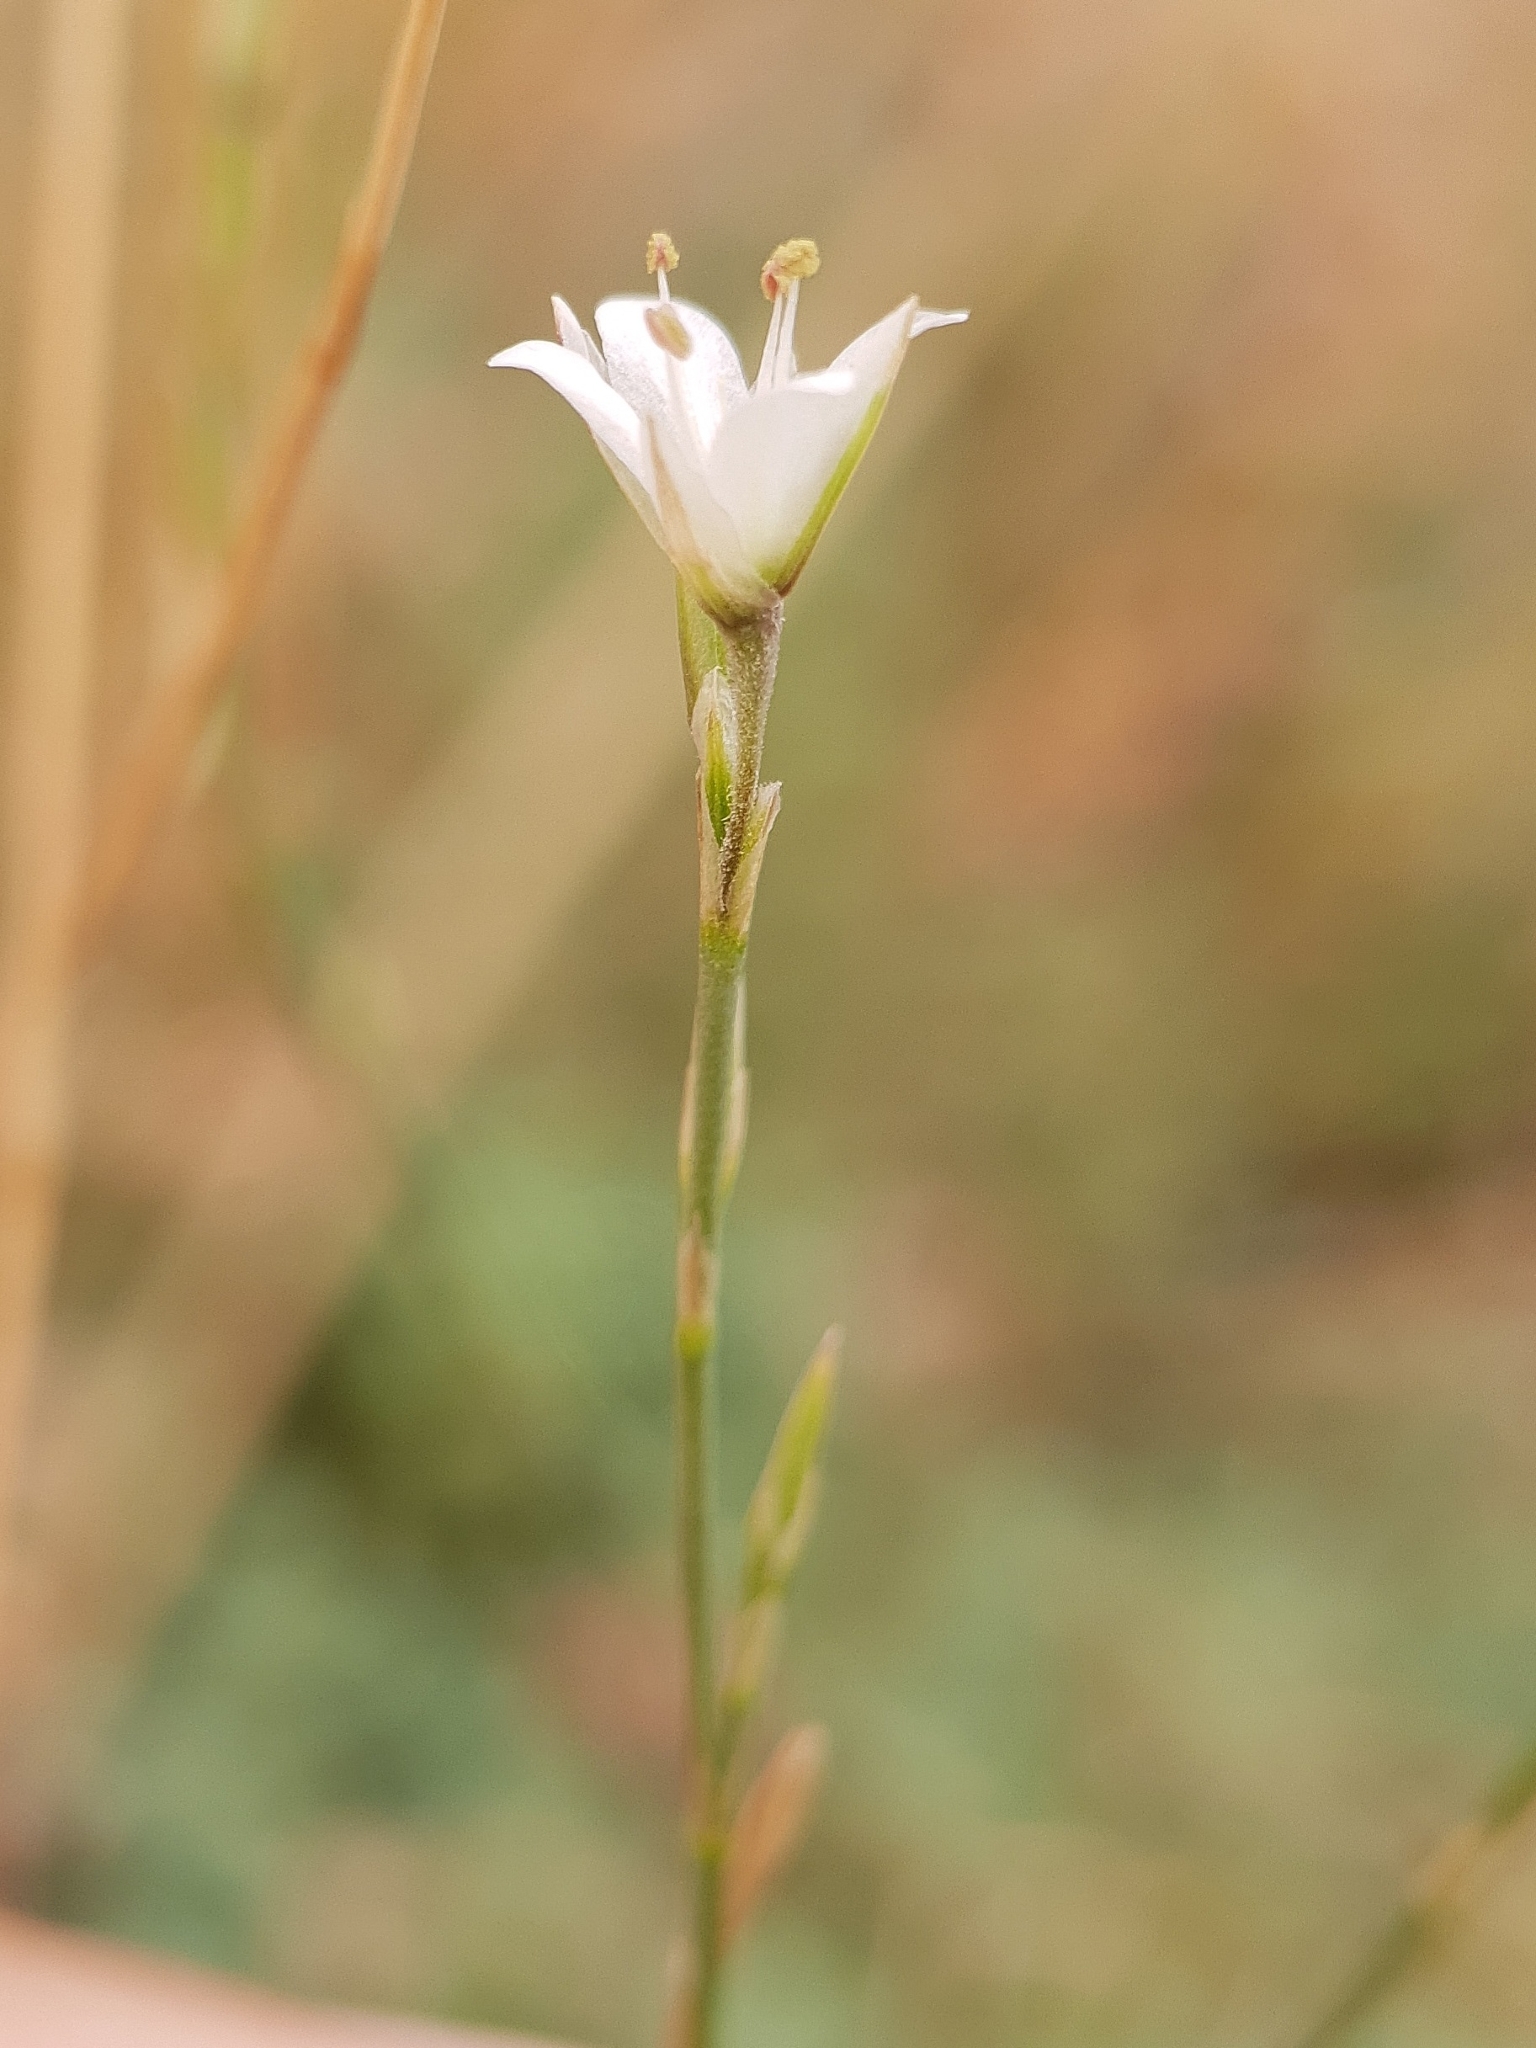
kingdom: Plantae
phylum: Tracheophyta
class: Magnoliopsida
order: Caryophyllales
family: Caryophyllaceae
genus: Bufonia
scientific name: Bufonia chevalieri
